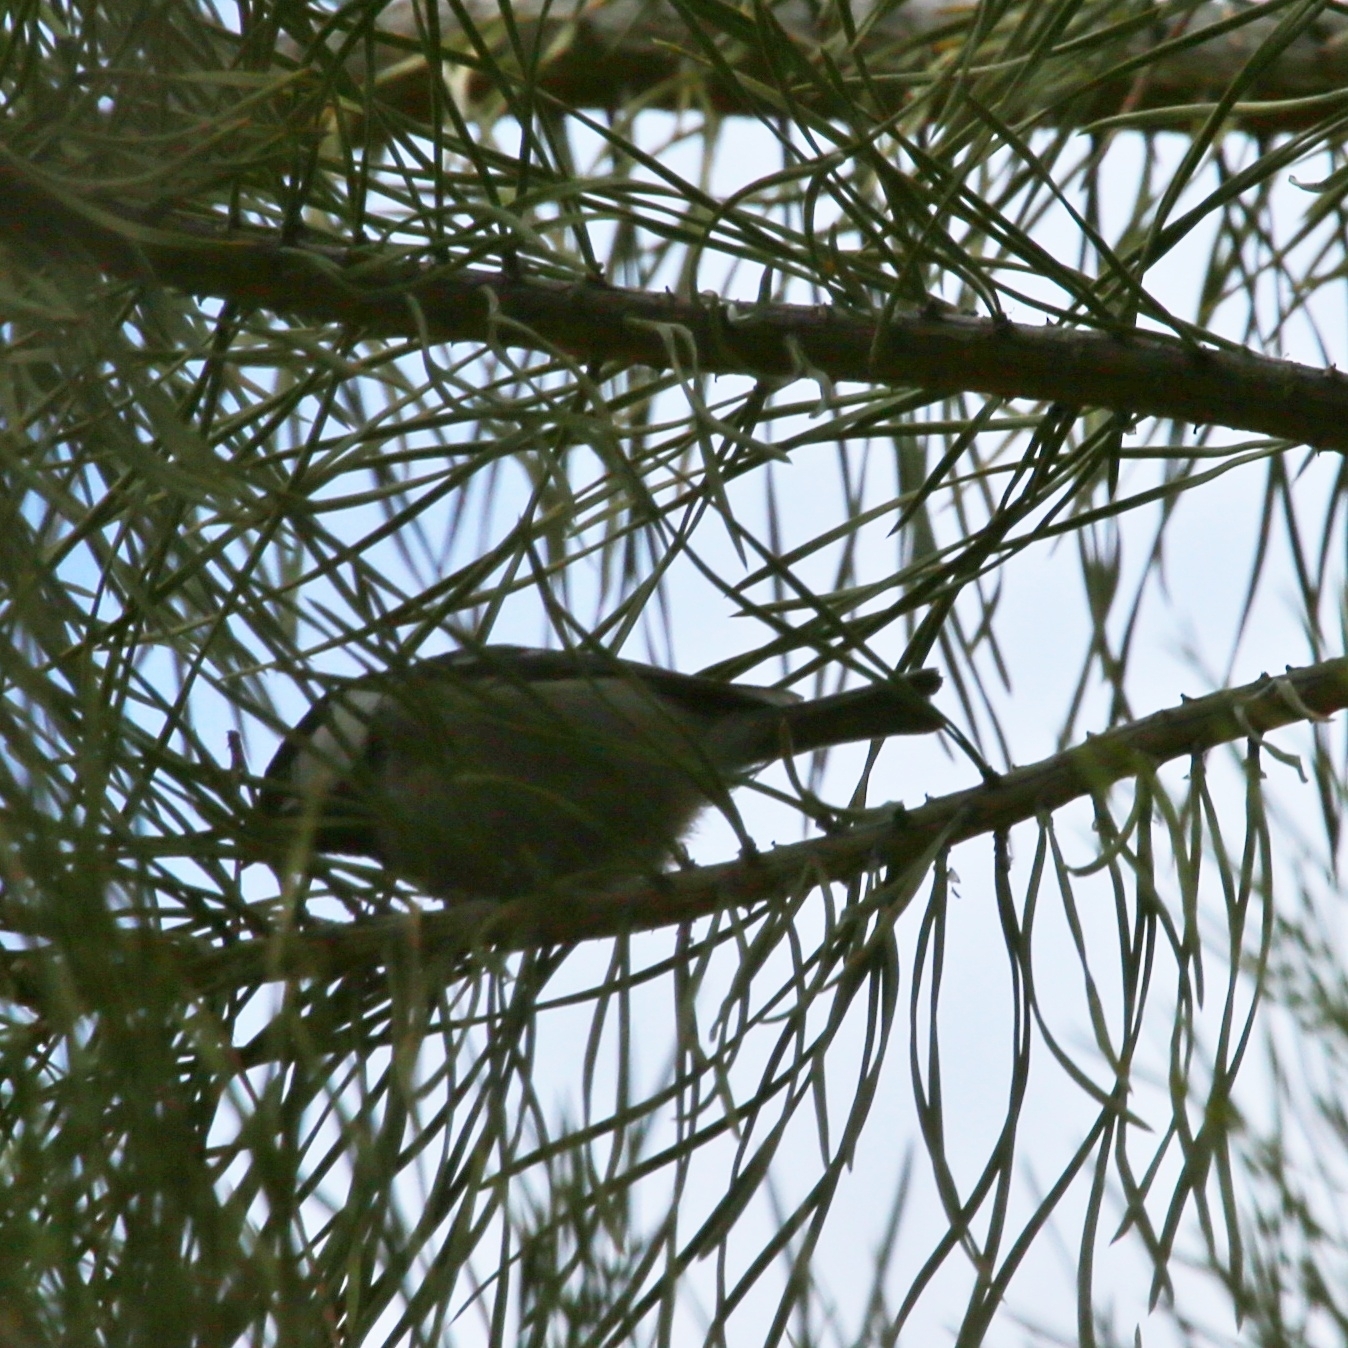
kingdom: Animalia
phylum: Chordata
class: Aves
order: Passeriformes
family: Paridae
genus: Periparus
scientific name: Periparus ater
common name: Coal tit
